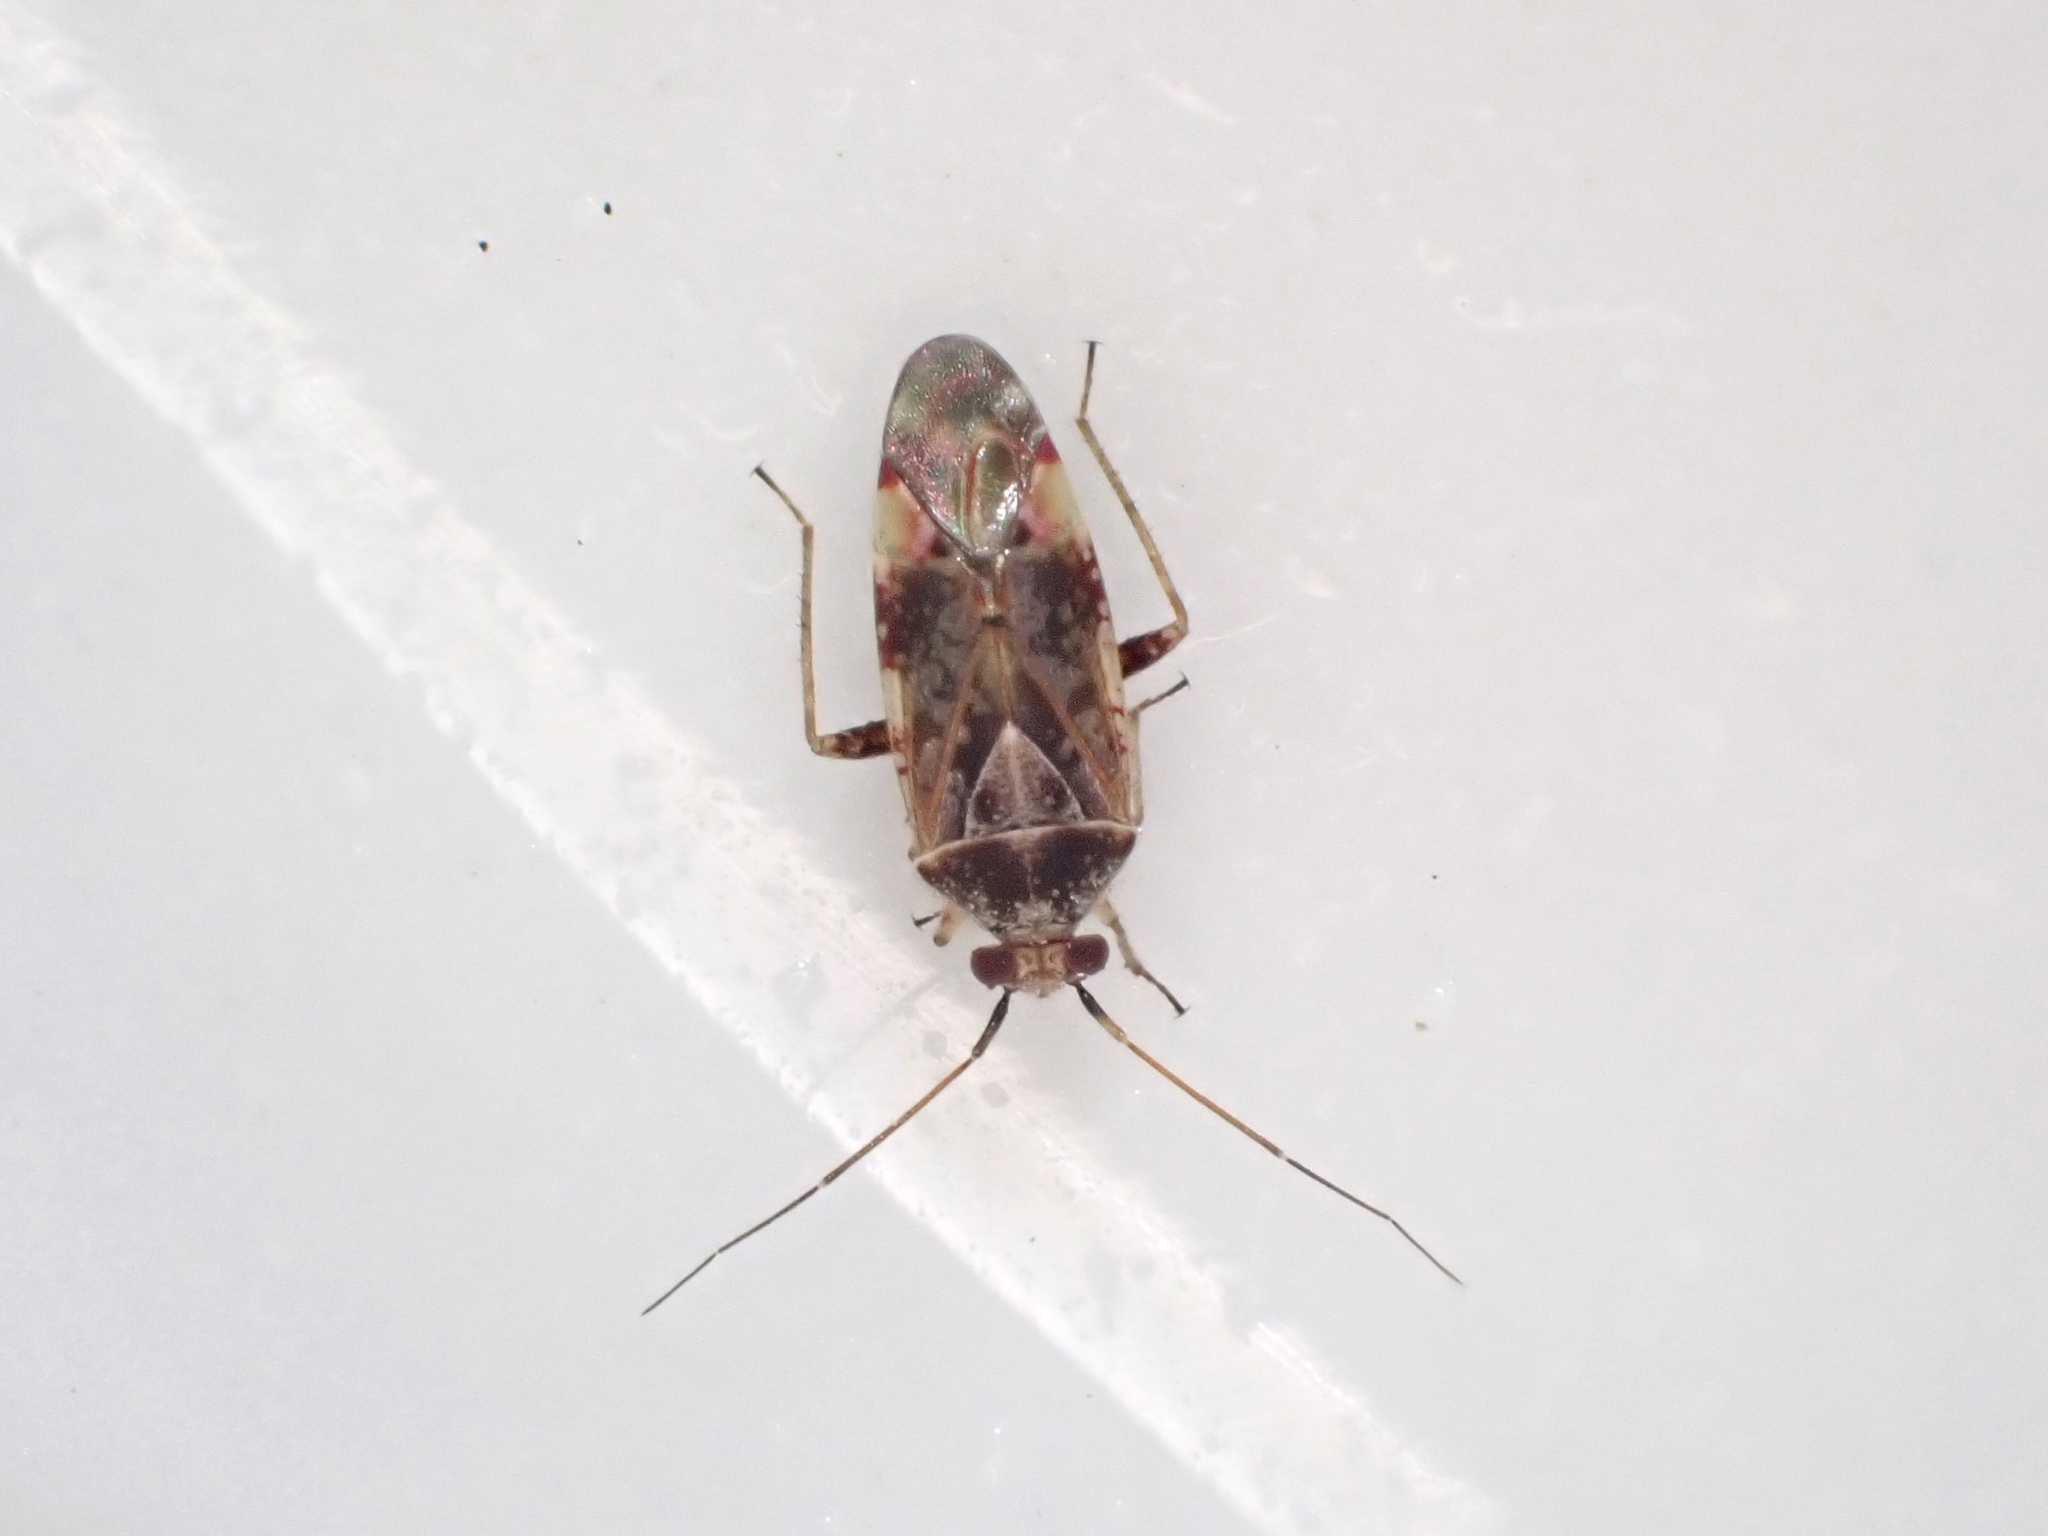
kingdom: Animalia
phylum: Arthropoda
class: Insecta
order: Hemiptera
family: Miridae
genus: Tinginotum
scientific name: Tinginotum minutum
